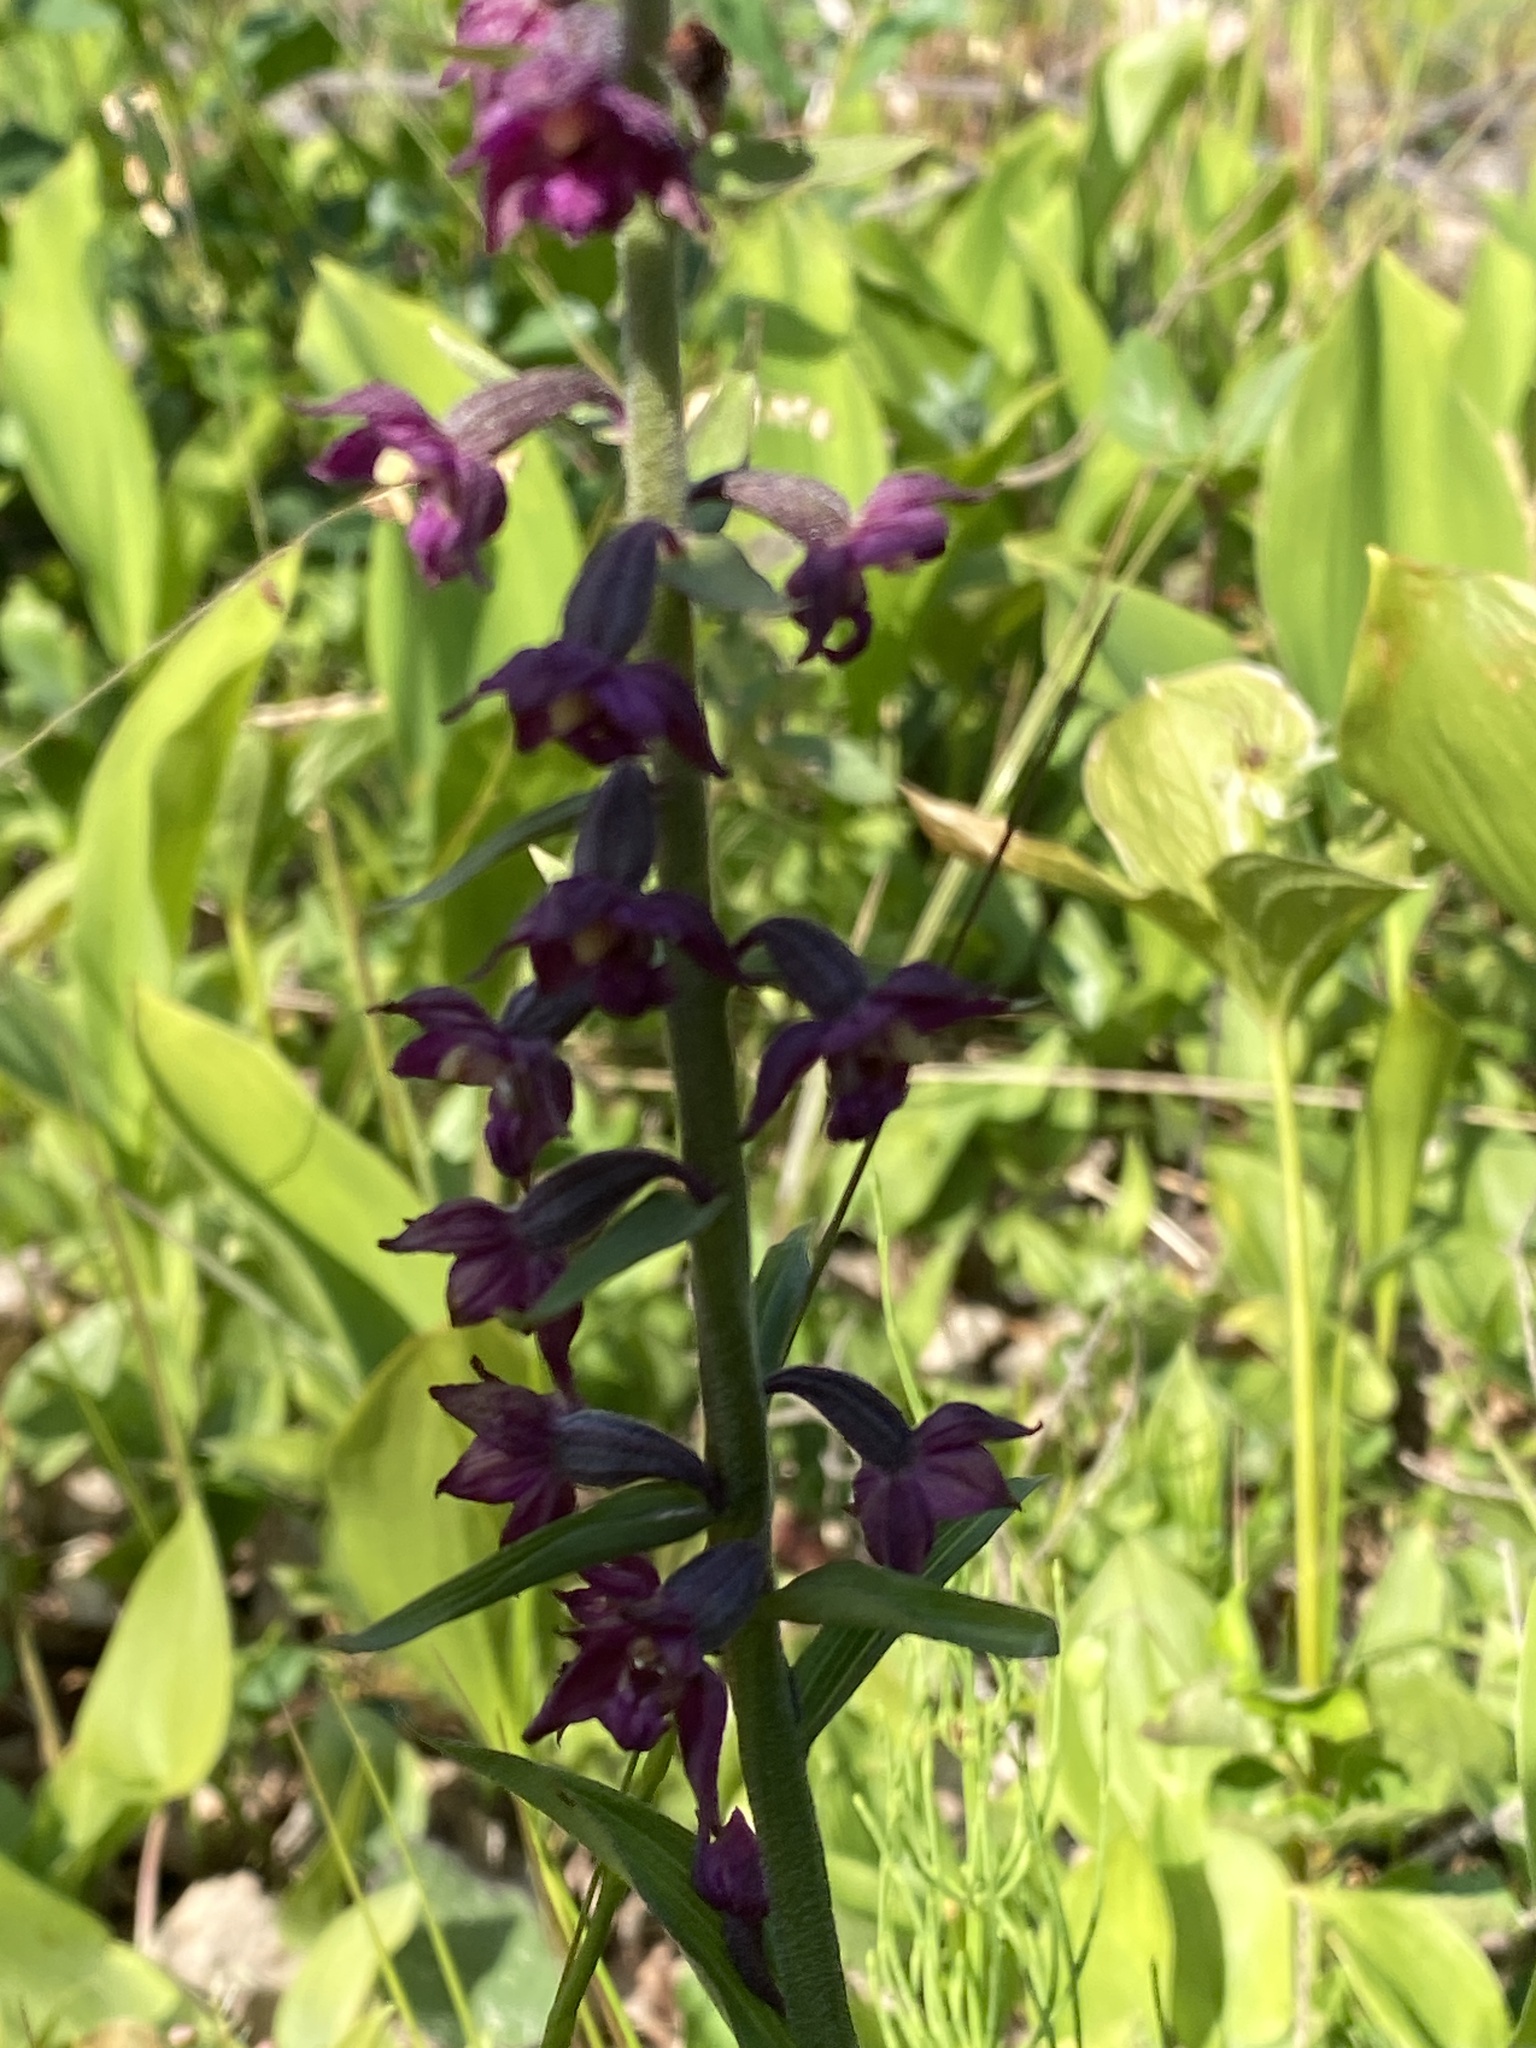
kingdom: Plantae
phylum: Tracheophyta
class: Liliopsida
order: Asparagales
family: Orchidaceae
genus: Epipactis
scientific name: Epipactis atrorubens
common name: Dark-red helleborine
